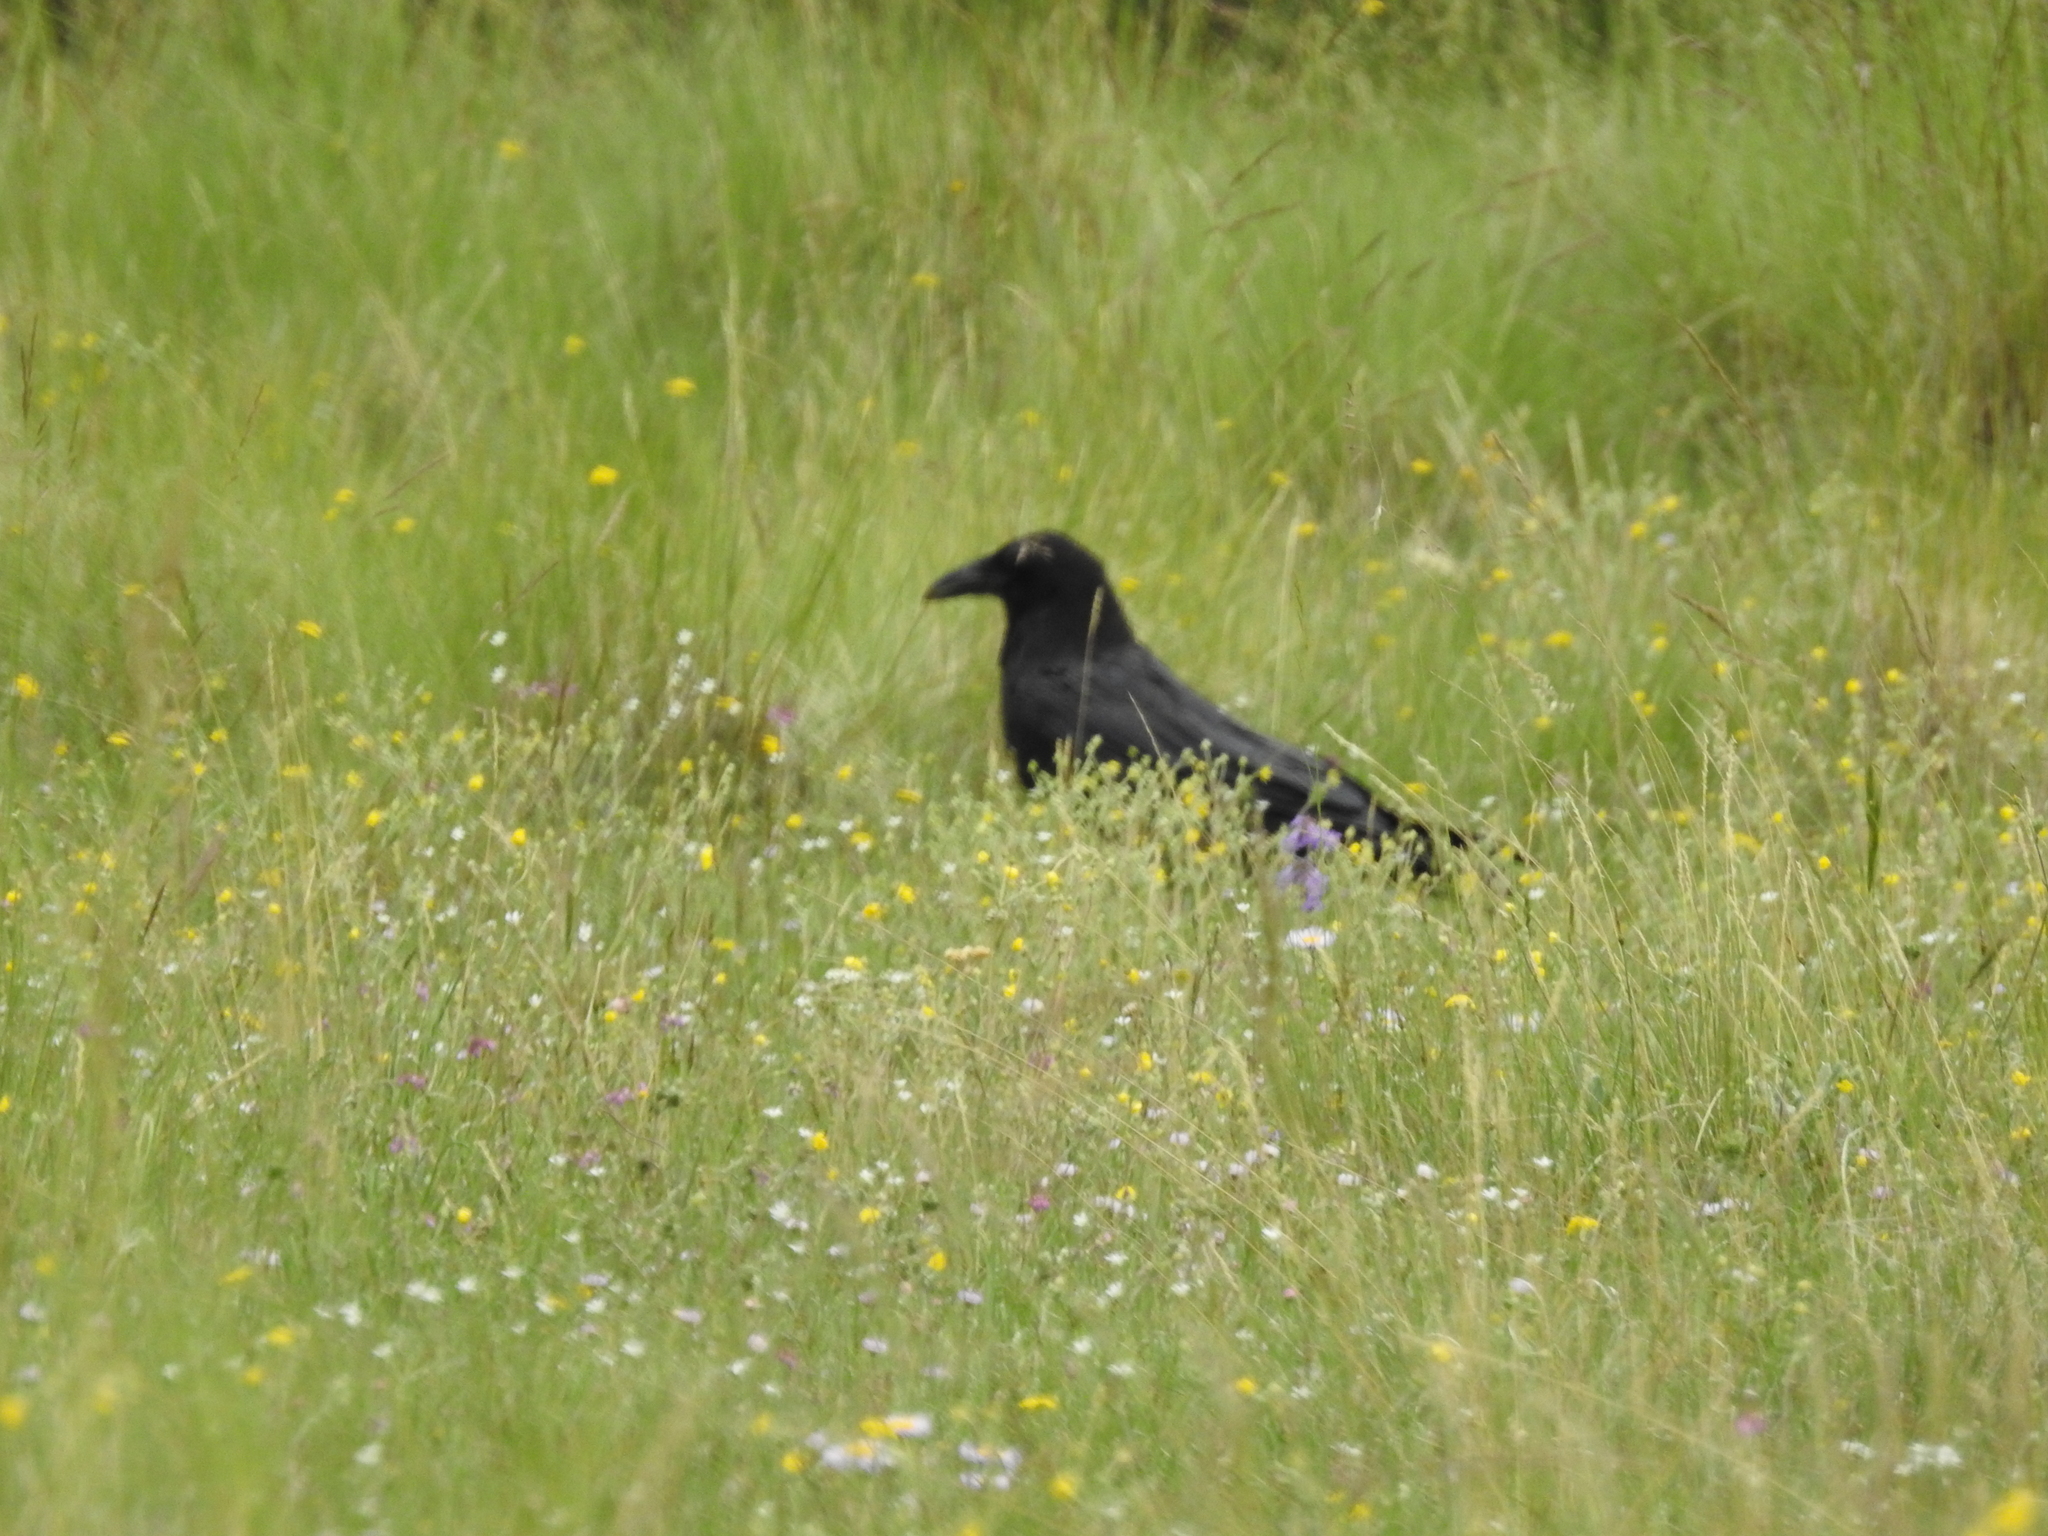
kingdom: Animalia
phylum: Chordata
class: Aves
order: Passeriformes
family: Corvidae
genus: Corvus
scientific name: Corvus corax
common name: Common raven
